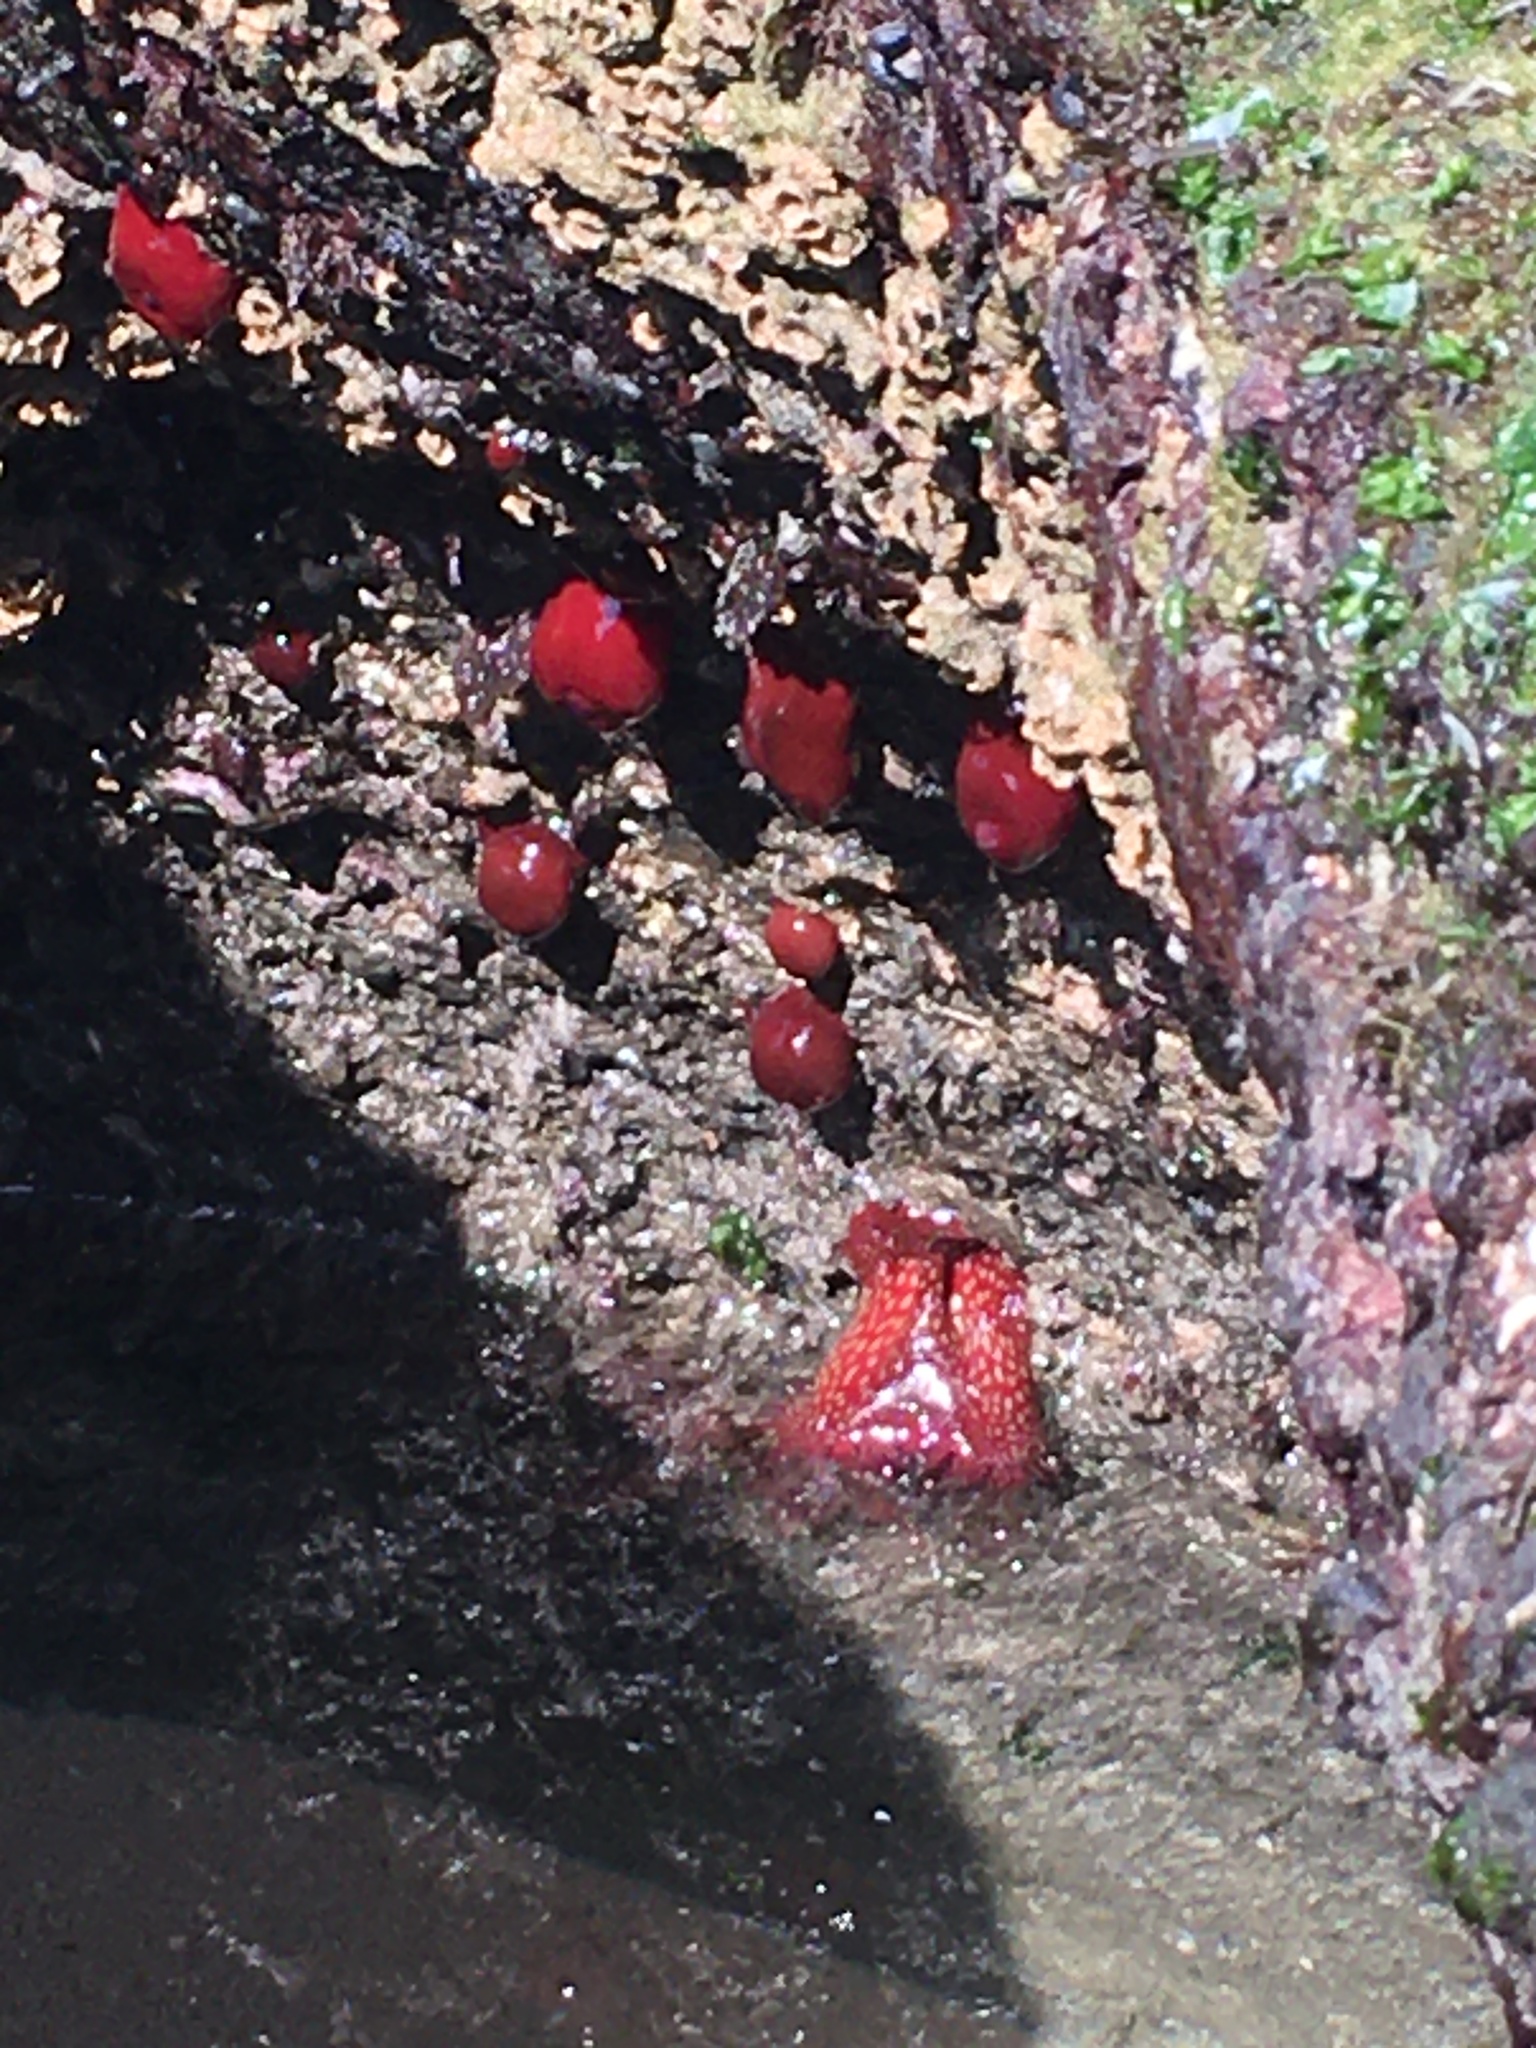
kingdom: Animalia
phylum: Cnidaria
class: Anthozoa
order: Actiniaria
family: Actiniidae
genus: Actinia
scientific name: Actinia fragacea
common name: Strawberry anemone
